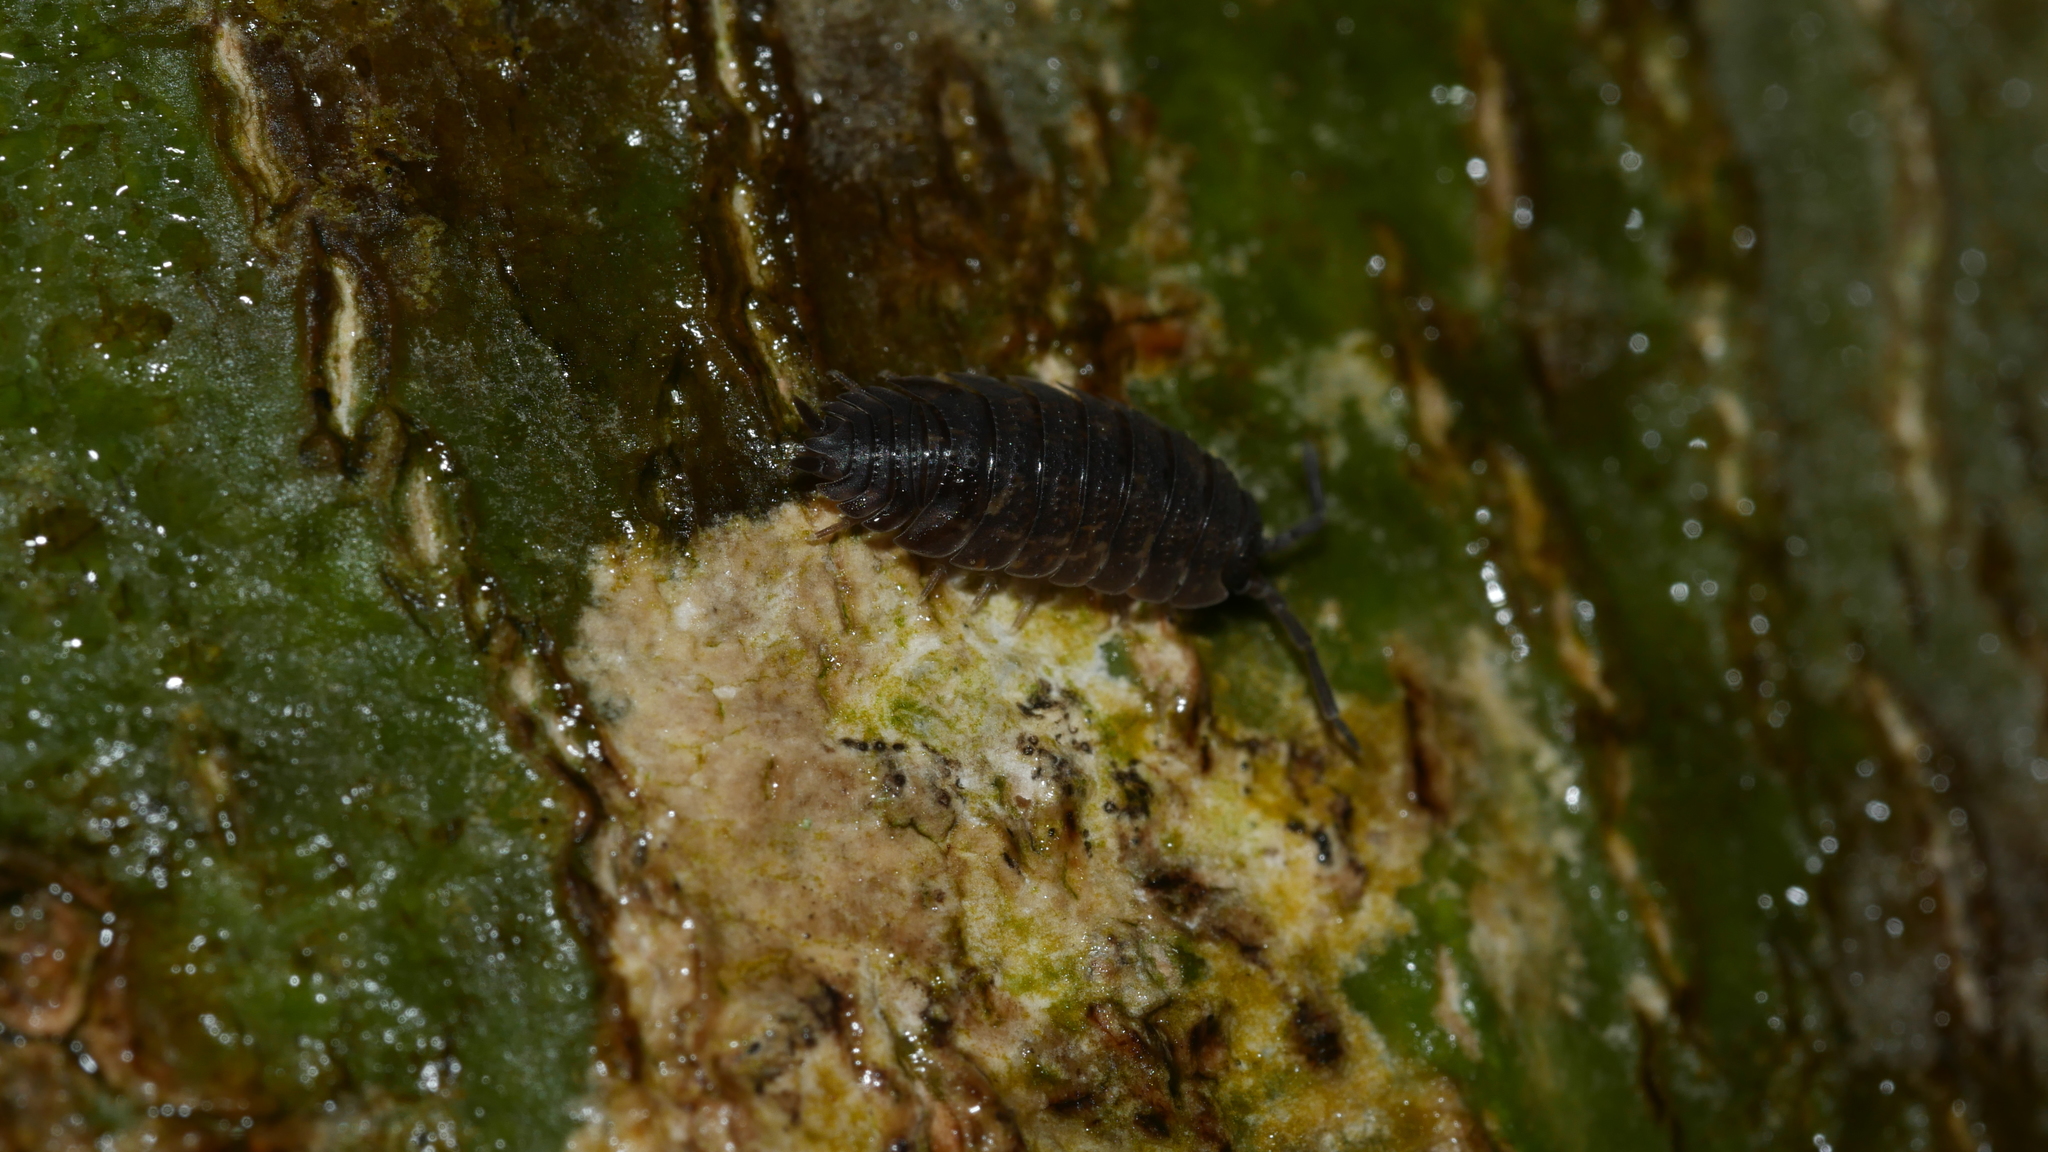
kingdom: Animalia
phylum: Arthropoda
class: Malacostraca
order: Isopoda
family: Porcellionidae
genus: Porcellio
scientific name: Porcellio scaber
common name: Common rough woodlouse
